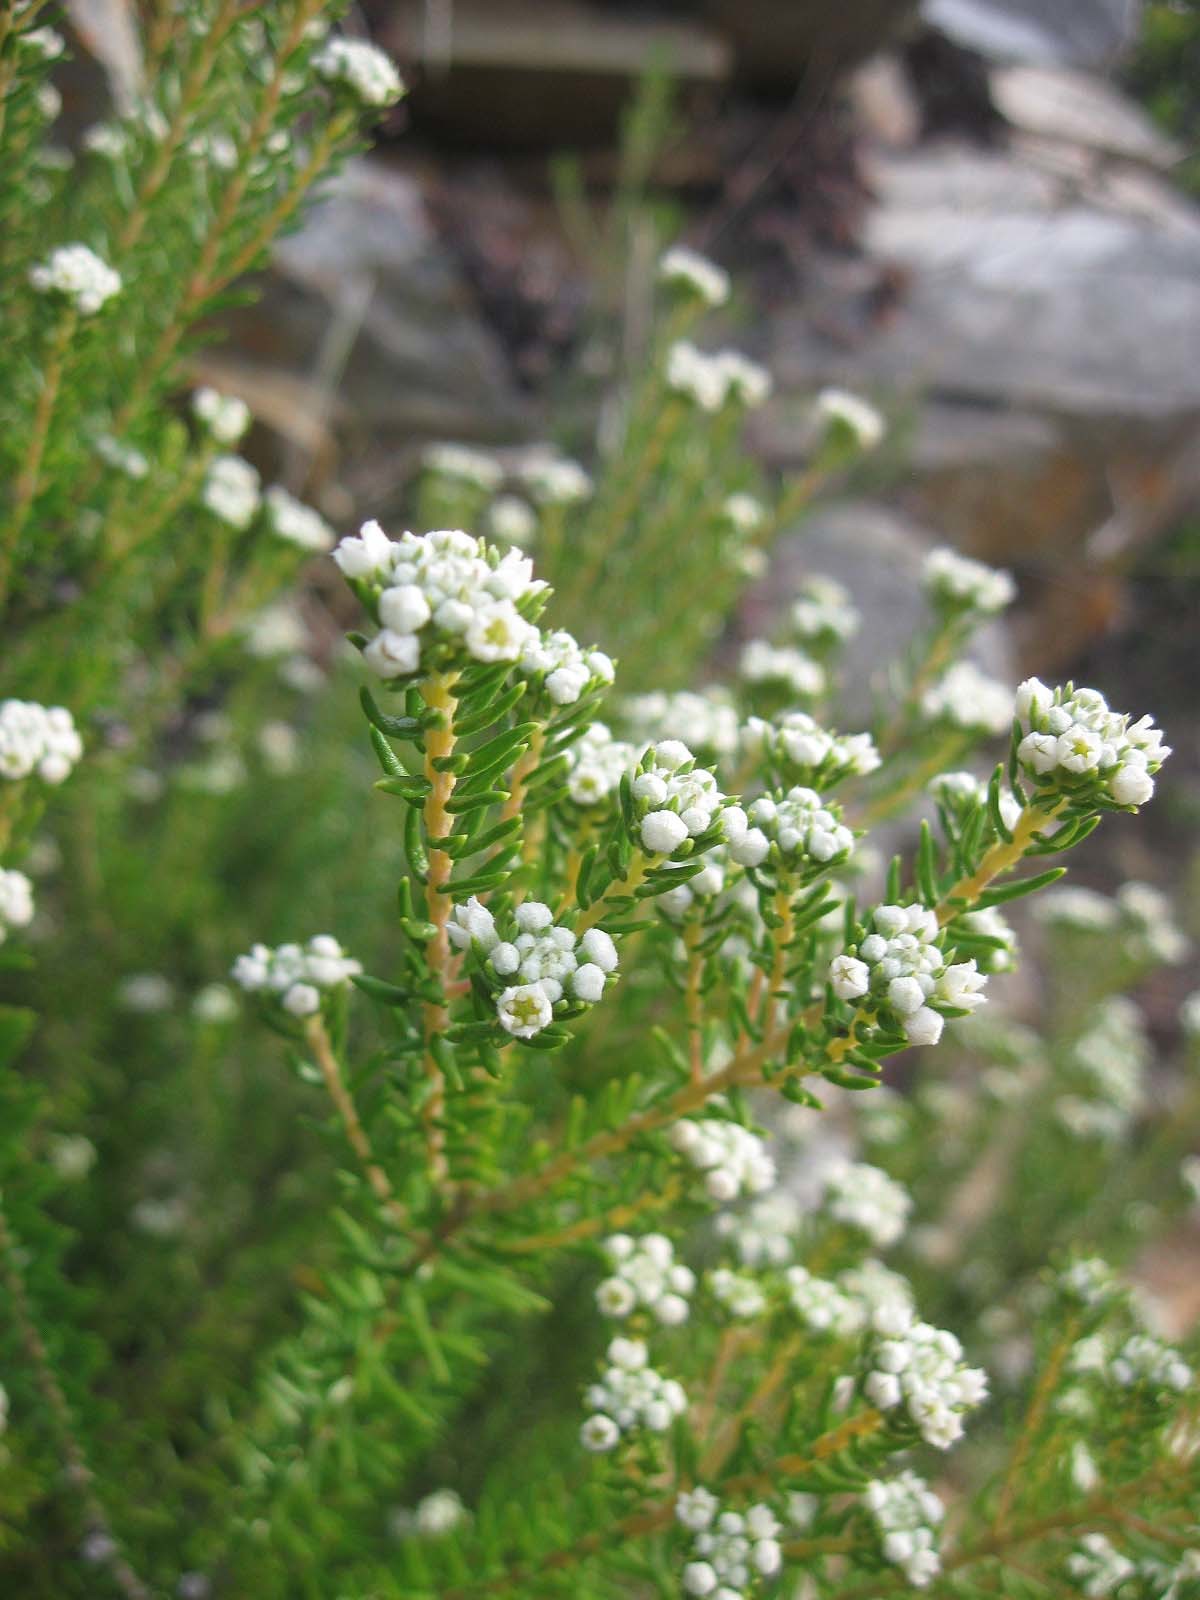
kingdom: Plantae
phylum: Tracheophyta
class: Magnoliopsida
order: Rosales
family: Rhamnaceae
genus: Phylica
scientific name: Phylica ericoides
